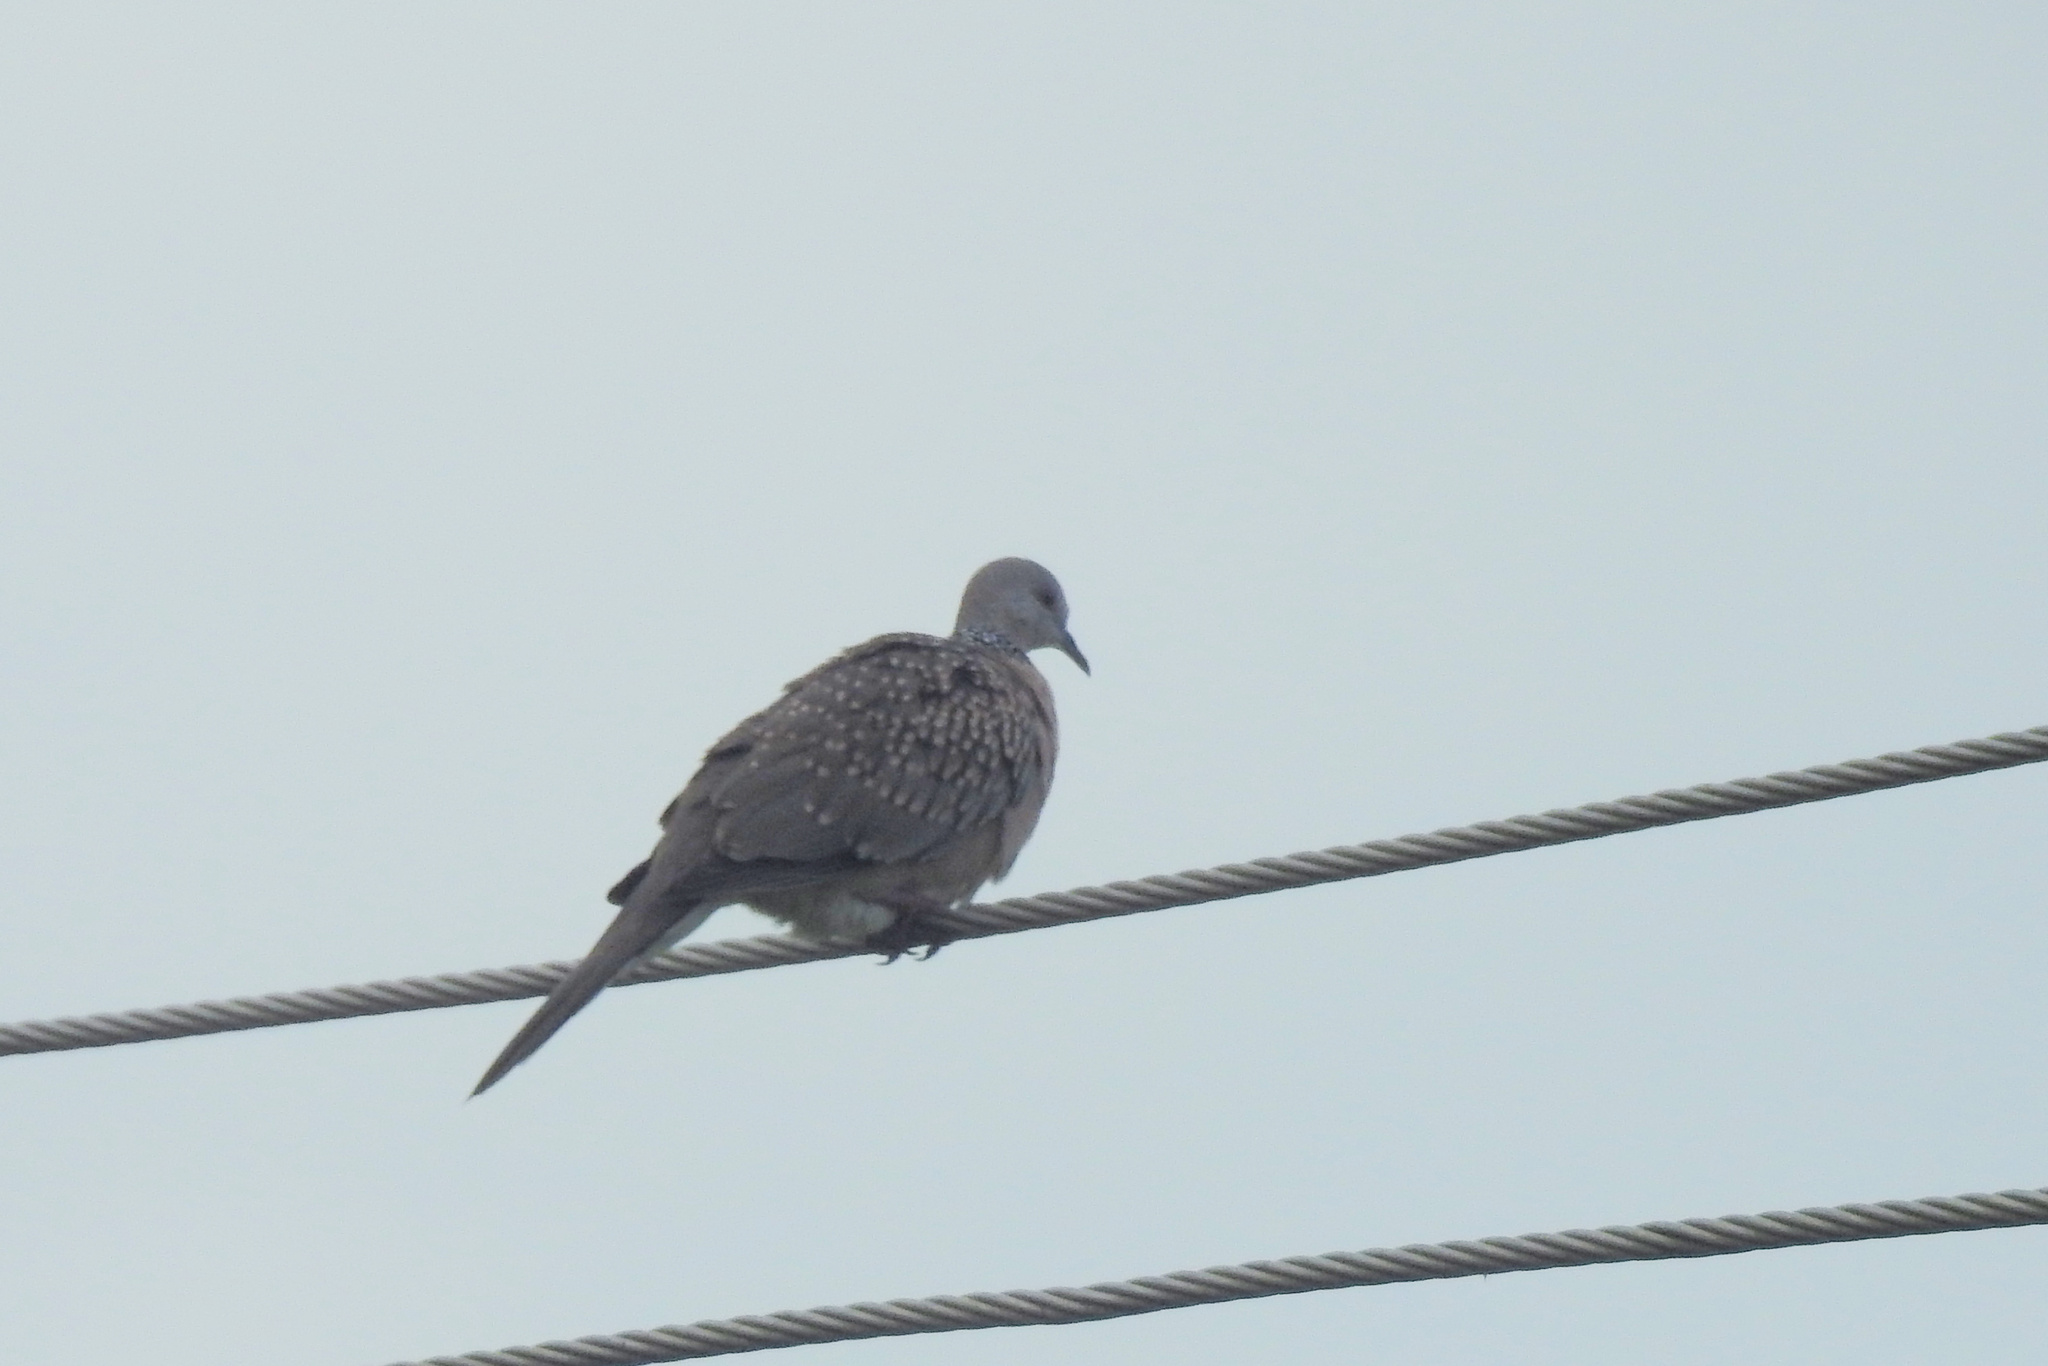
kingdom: Animalia
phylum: Chordata
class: Aves
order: Columbiformes
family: Columbidae
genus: Spilopelia
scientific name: Spilopelia chinensis
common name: Spotted dove
